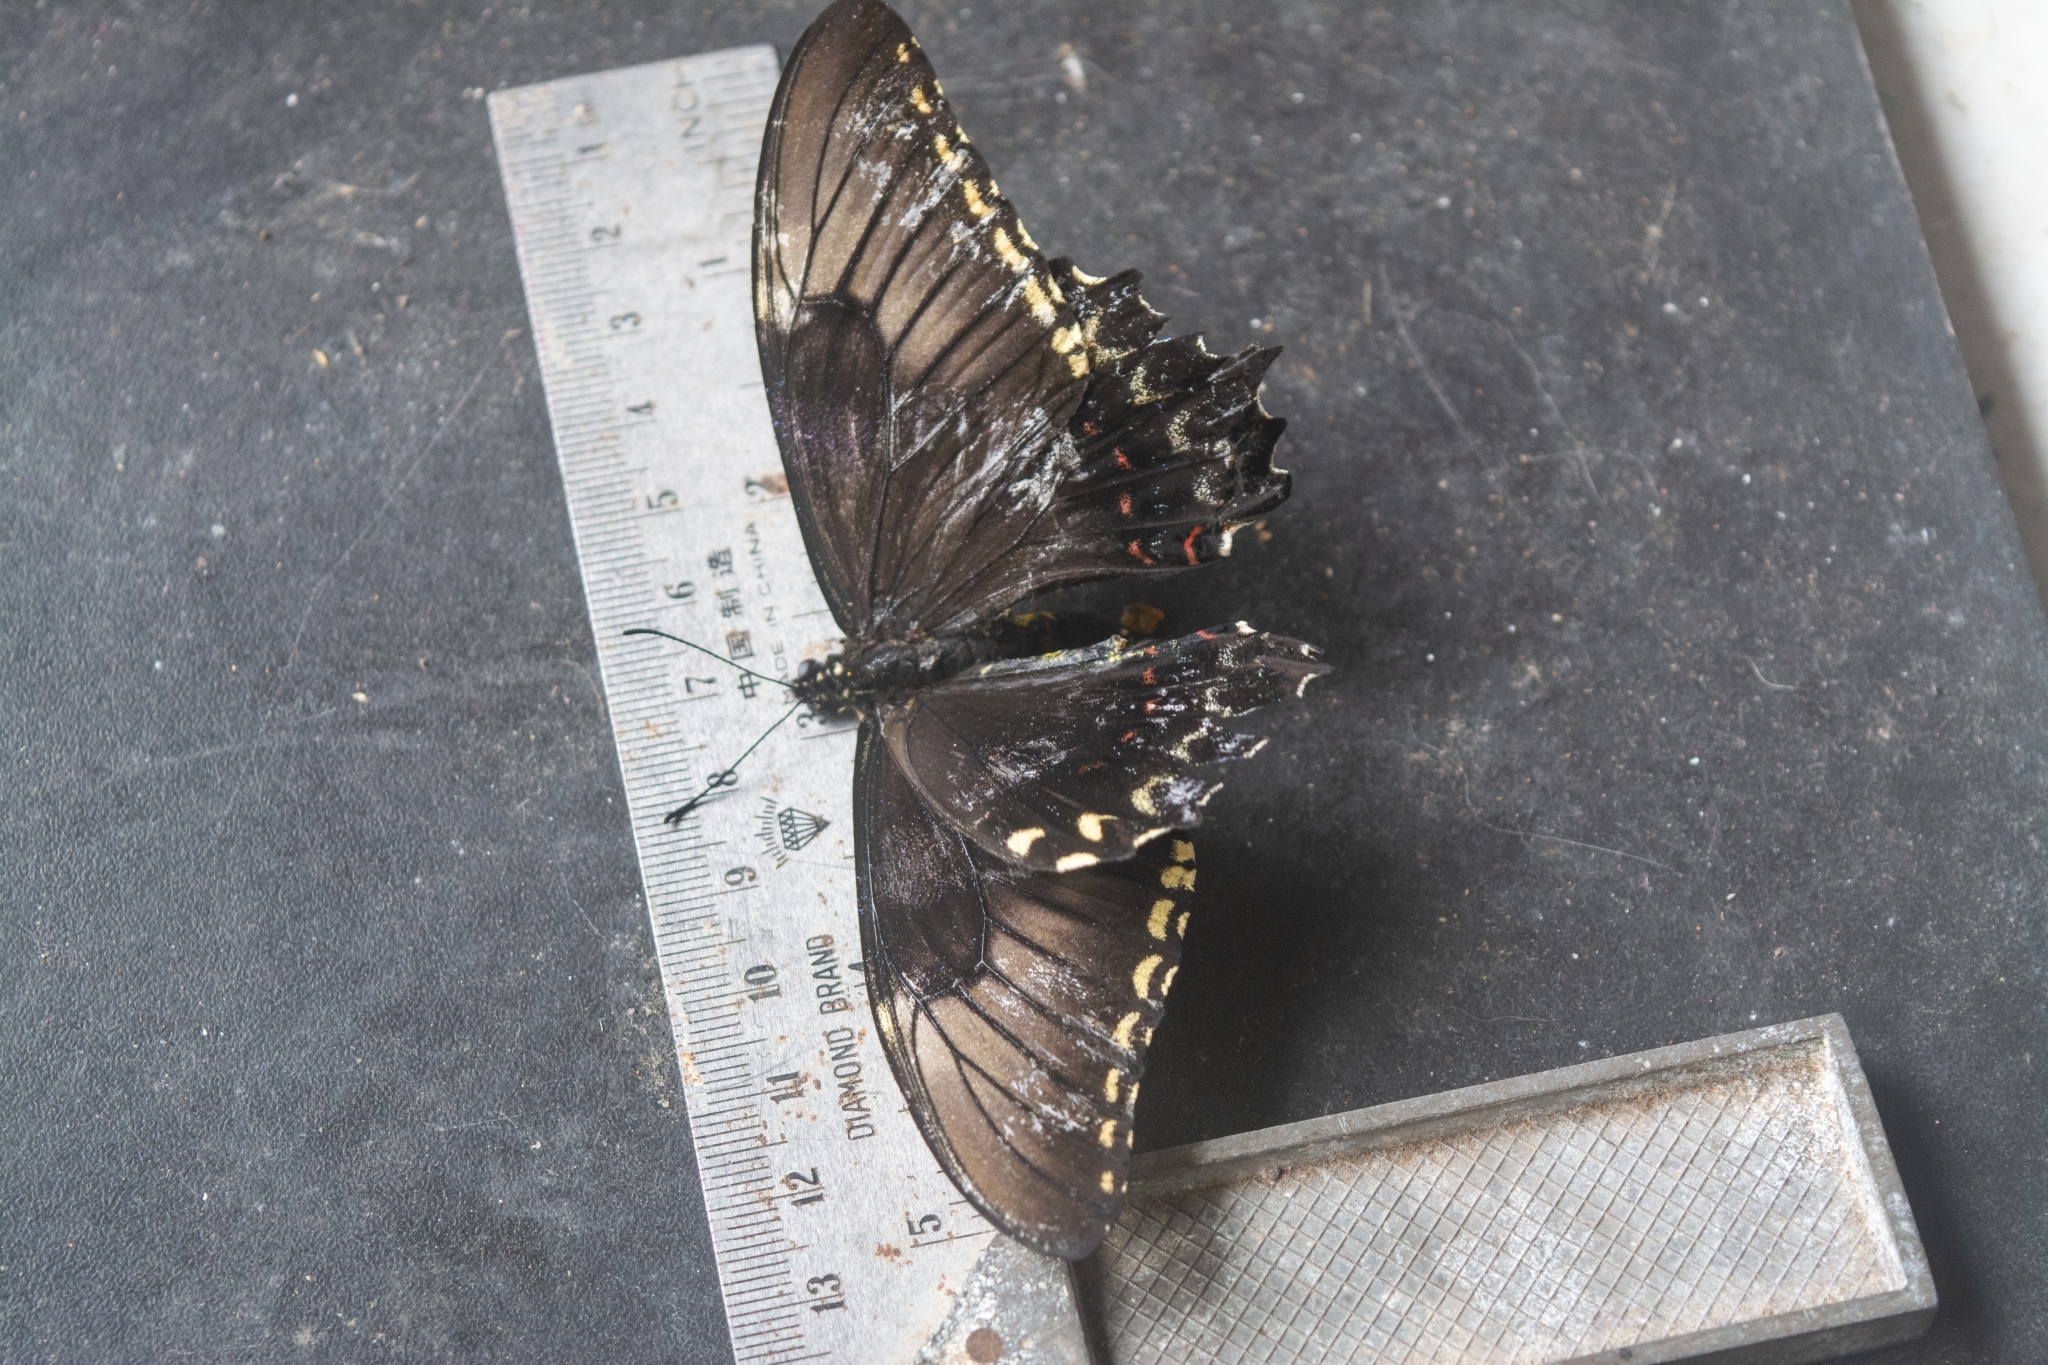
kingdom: Animalia
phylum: Arthropoda
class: Insecta
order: Lepidoptera
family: Papilionidae
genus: Papilio
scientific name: Papilio astyalus
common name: Astyalus swallowtail
